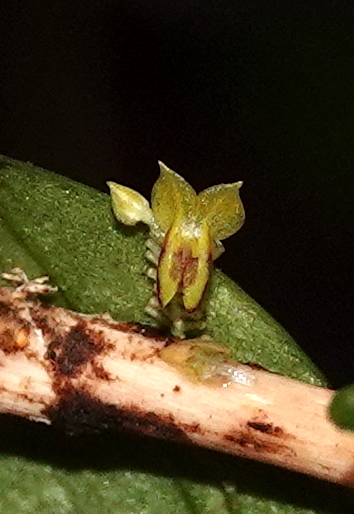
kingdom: Plantae
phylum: Tracheophyta
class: Liliopsida
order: Asparagales
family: Orchidaceae
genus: Lepanthes
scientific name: Lepanthes uribei
